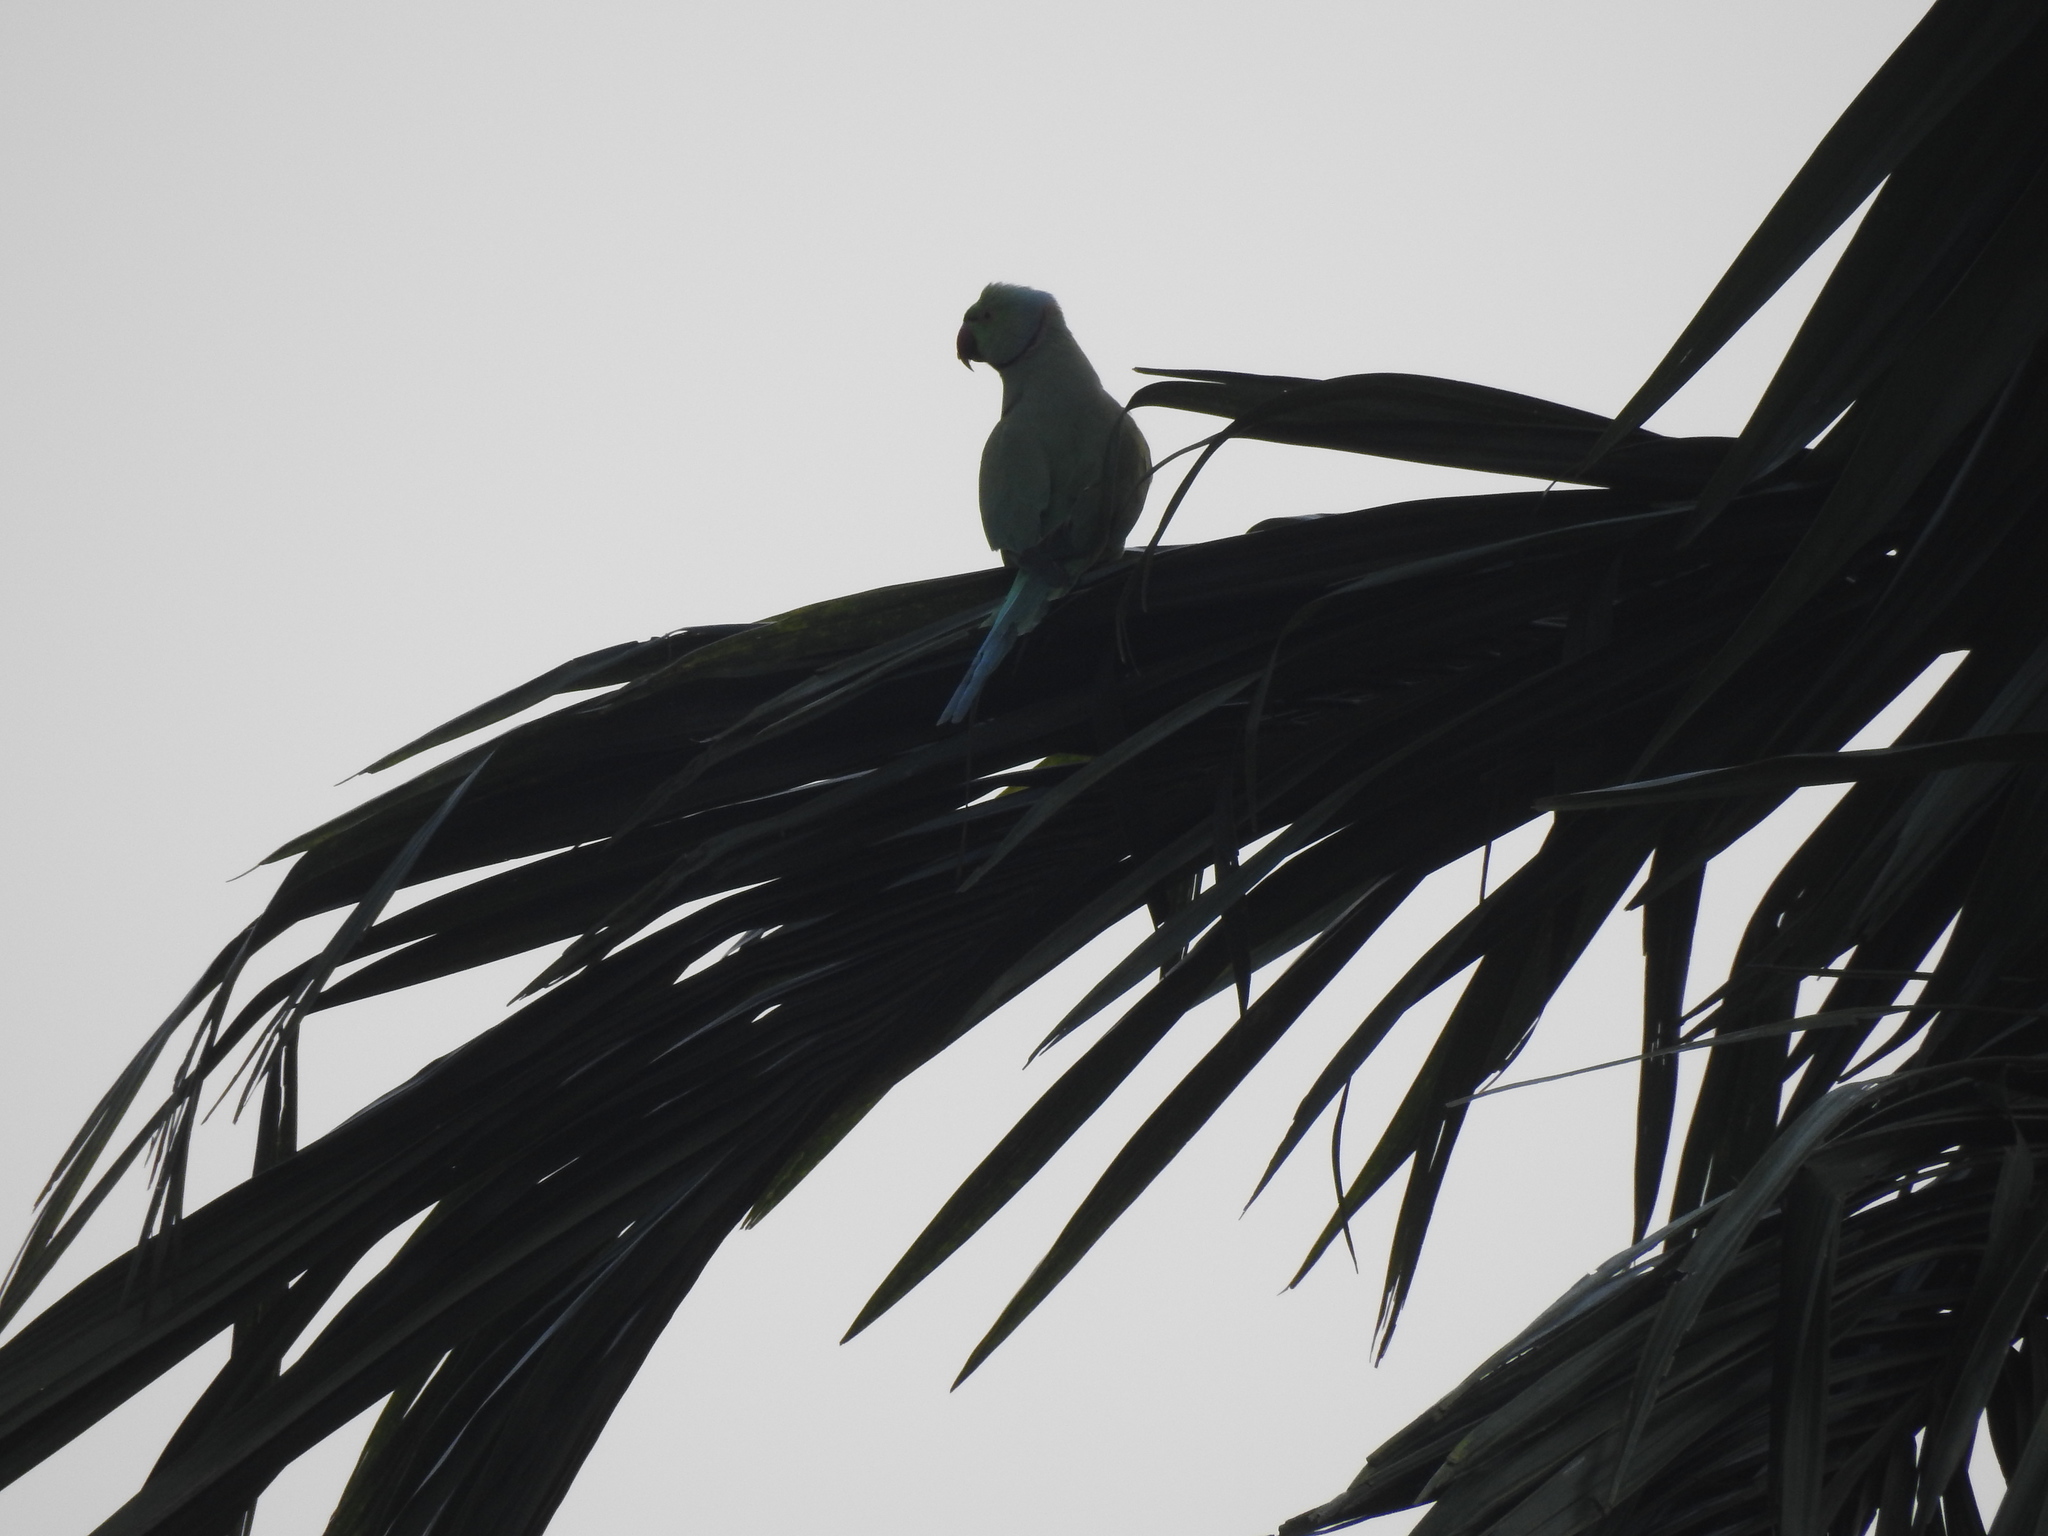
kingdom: Animalia
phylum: Chordata
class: Aves
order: Psittaciformes
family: Psittacidae
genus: Psittacula
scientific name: Psittacula krameri
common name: Rose-ringed parakeet
